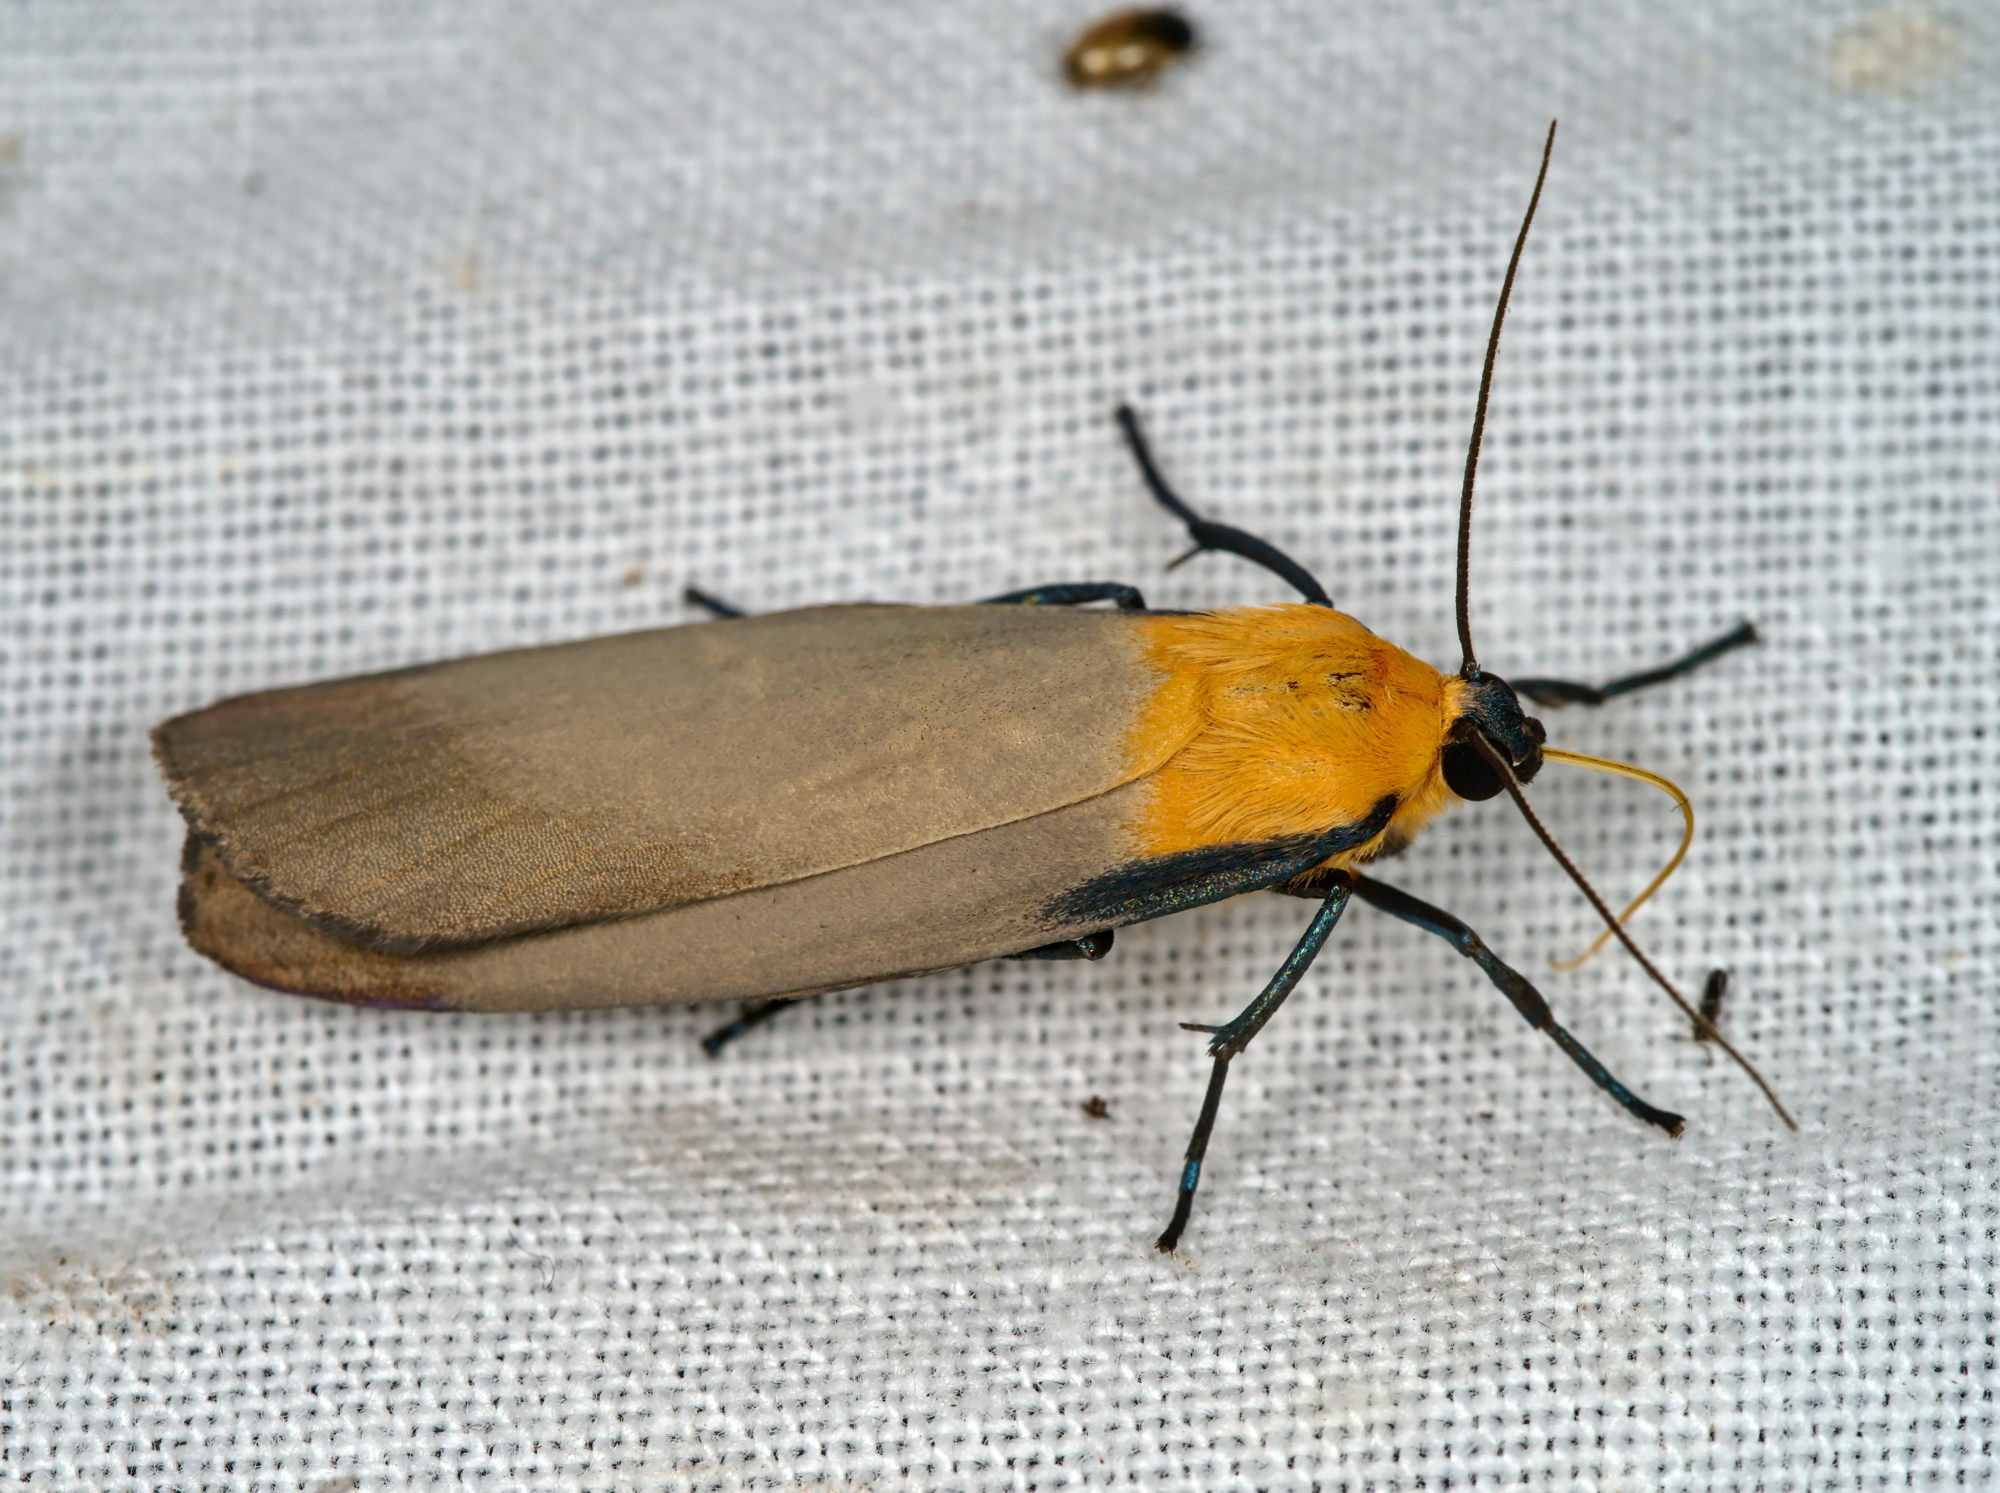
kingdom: Animalia
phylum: Arthropoda
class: Insecta
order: Lepidoptera
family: Erebidae
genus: Lithosia
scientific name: Lithosia quadra
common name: Four-spotted footman
